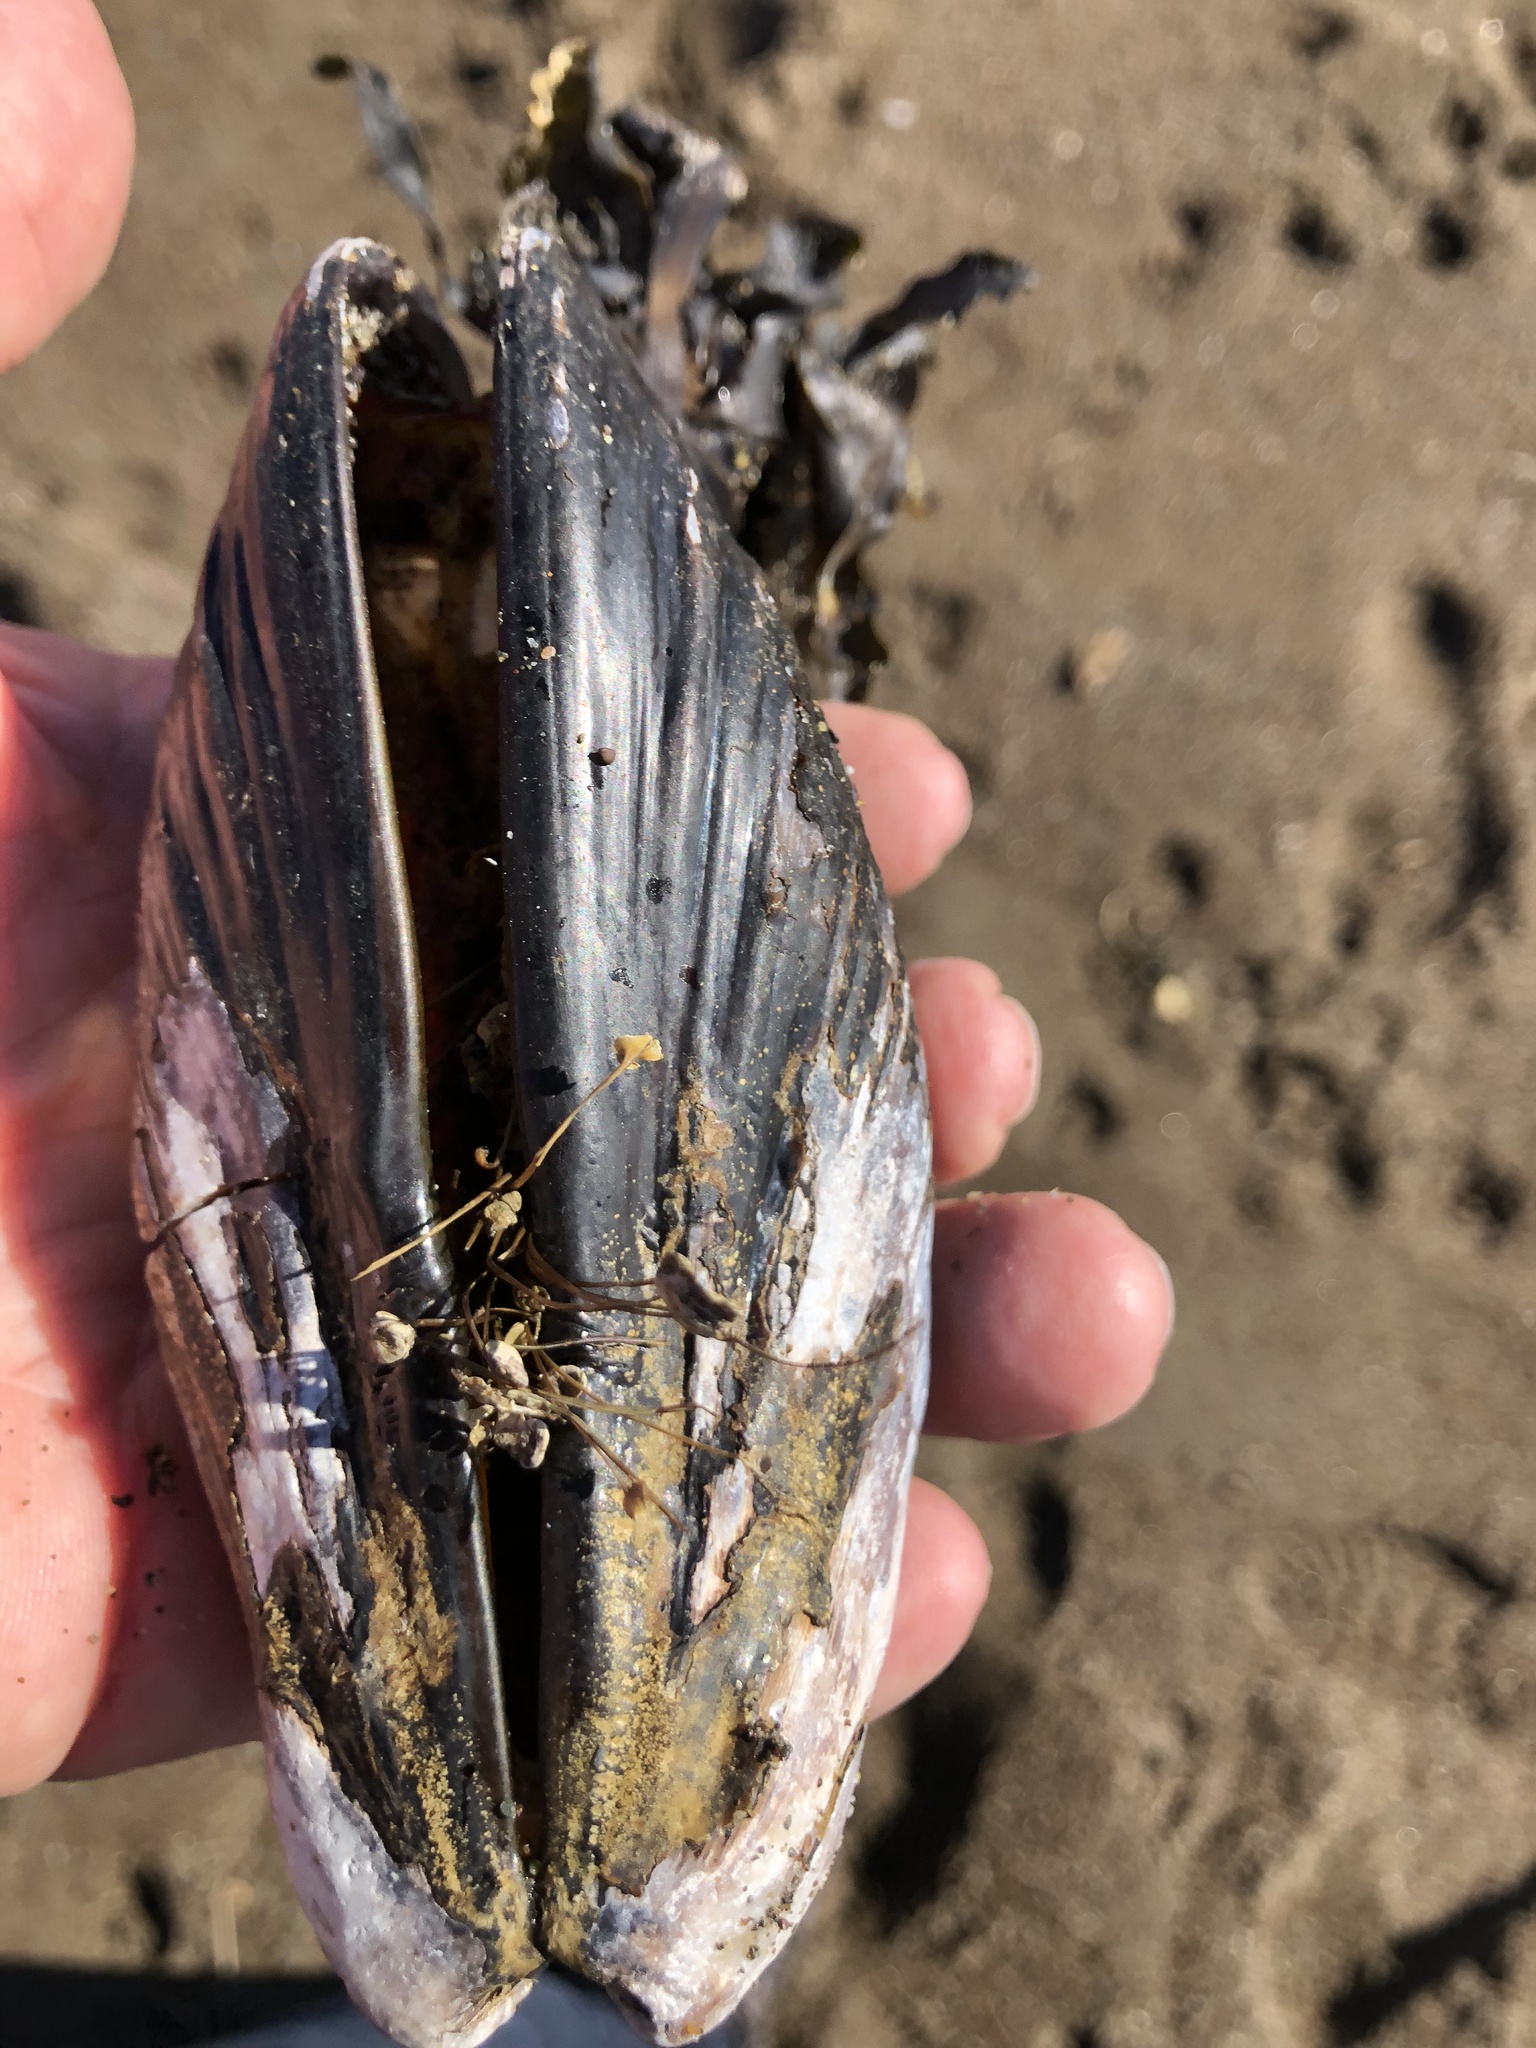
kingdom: Animalia
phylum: Mollusca
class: Bivalvia
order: Mytilida
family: Mytilidae
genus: Mytilus
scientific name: Mytilus californianus
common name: California mussel
